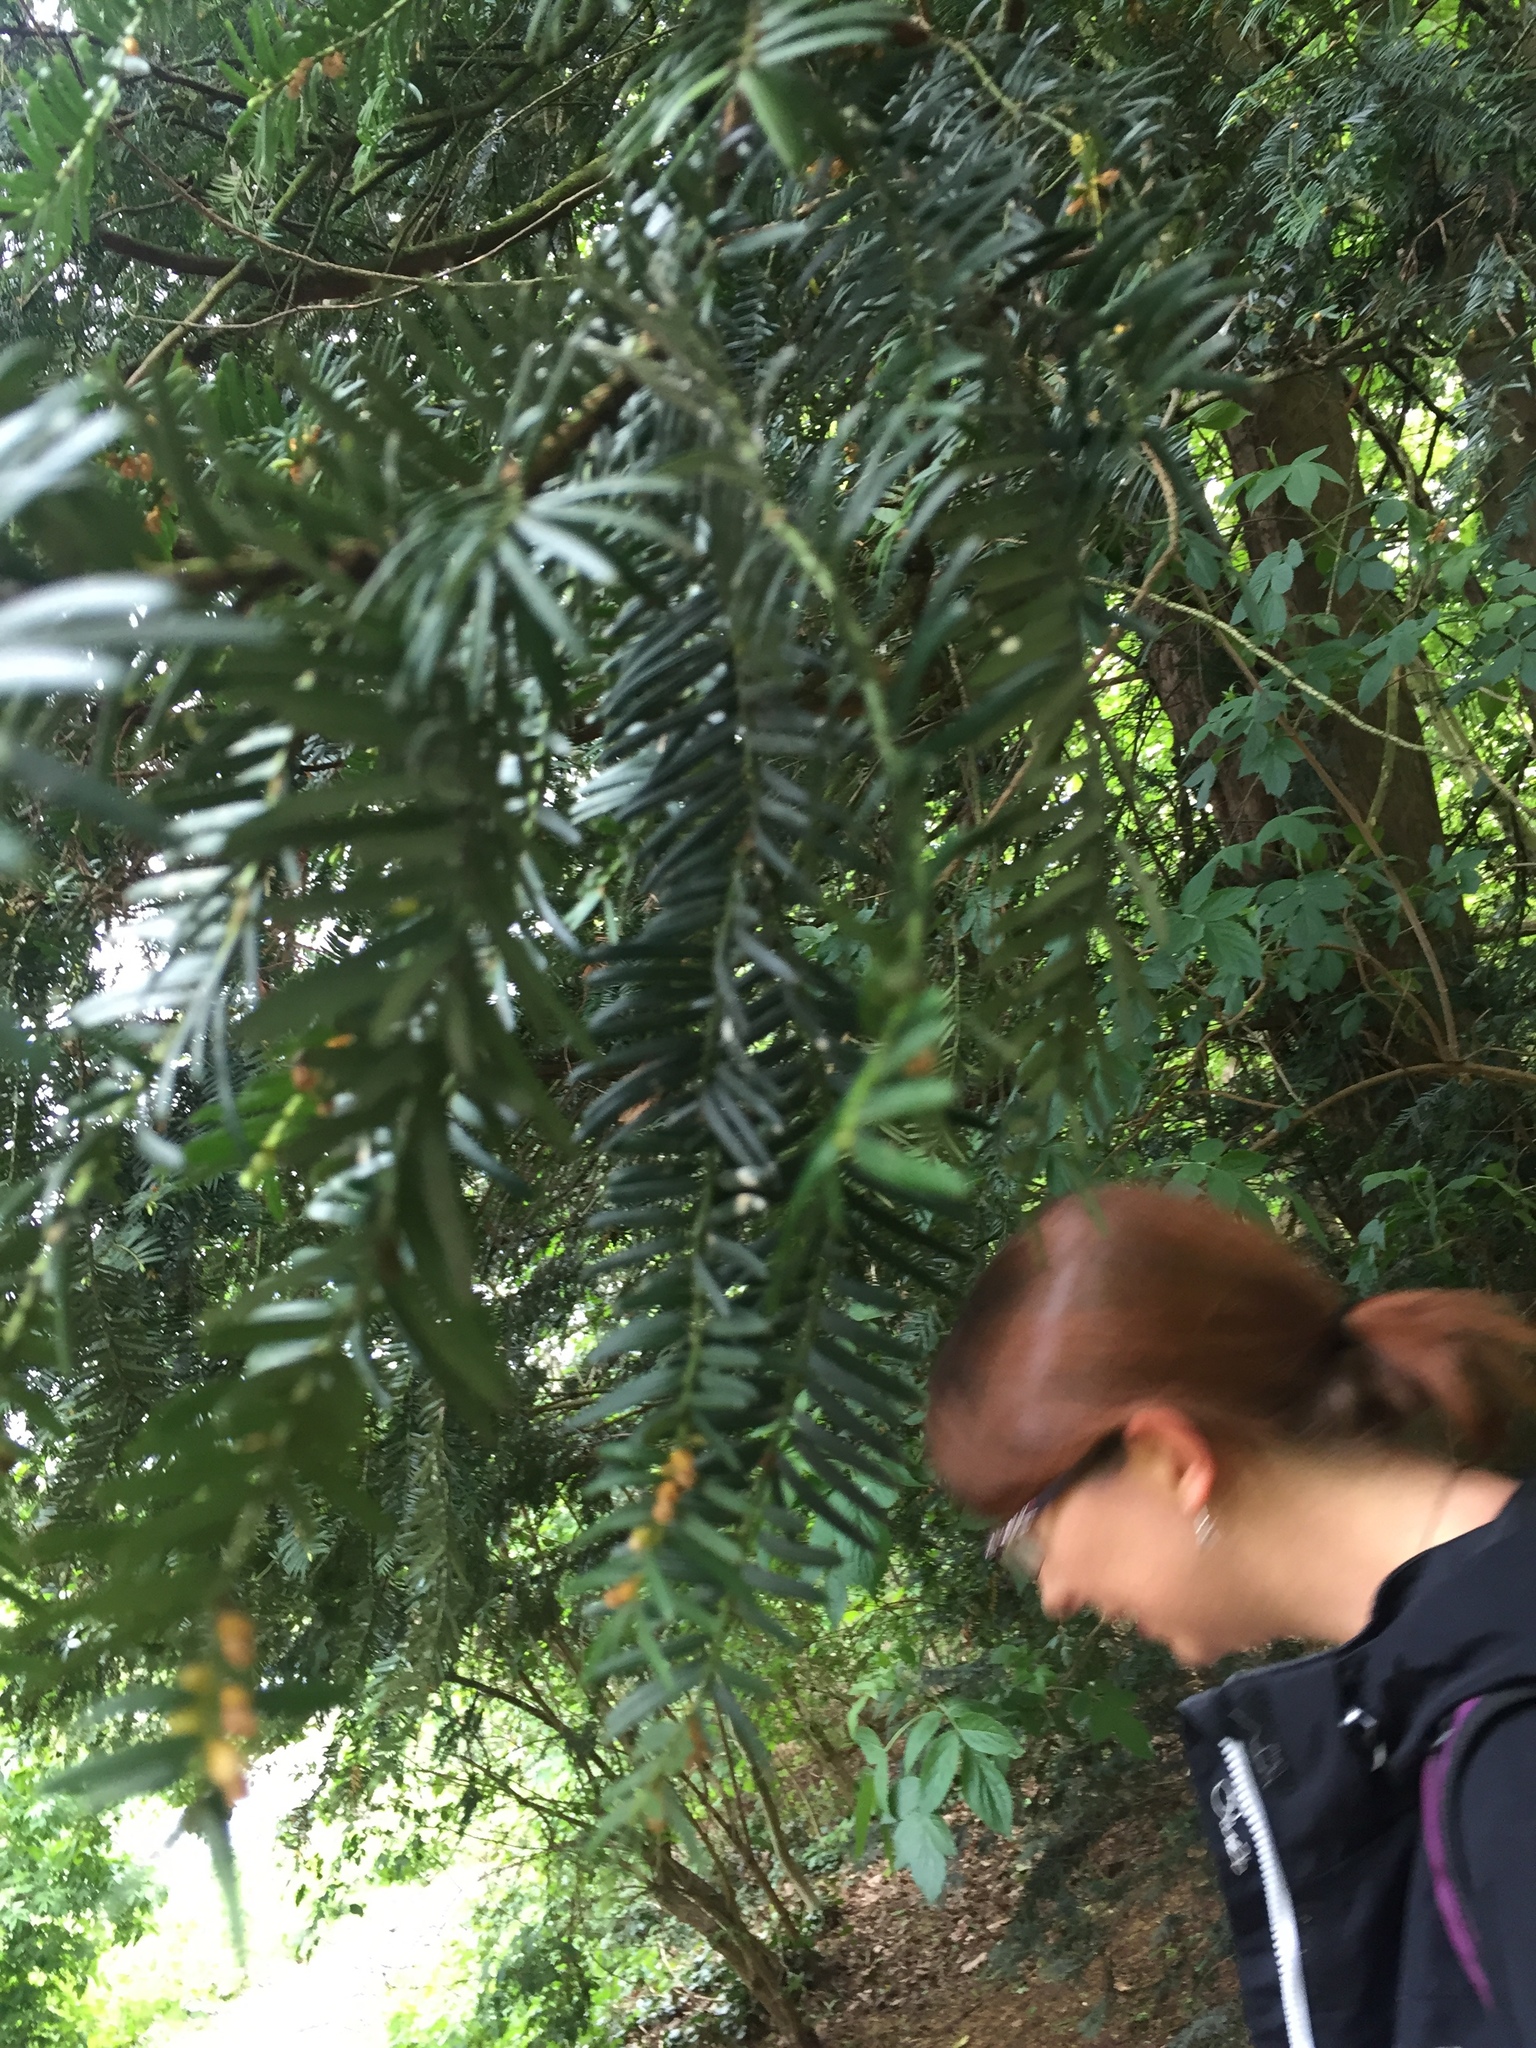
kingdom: Plantae
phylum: Tracheophyta
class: Pinopsida
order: Pinales
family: Taxaceae
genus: Taxus
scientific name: Taxus baccata
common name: Yew
